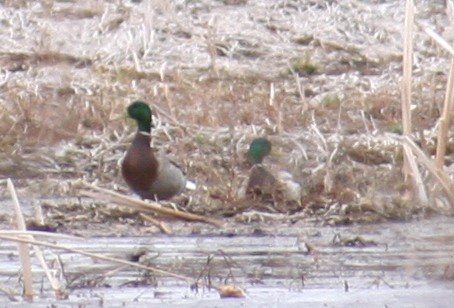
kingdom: Animalia
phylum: Chordata
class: Aves
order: Anseriformes
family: Anatidae
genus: Anas
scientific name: Anas platyrhynchos
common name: Mallard
